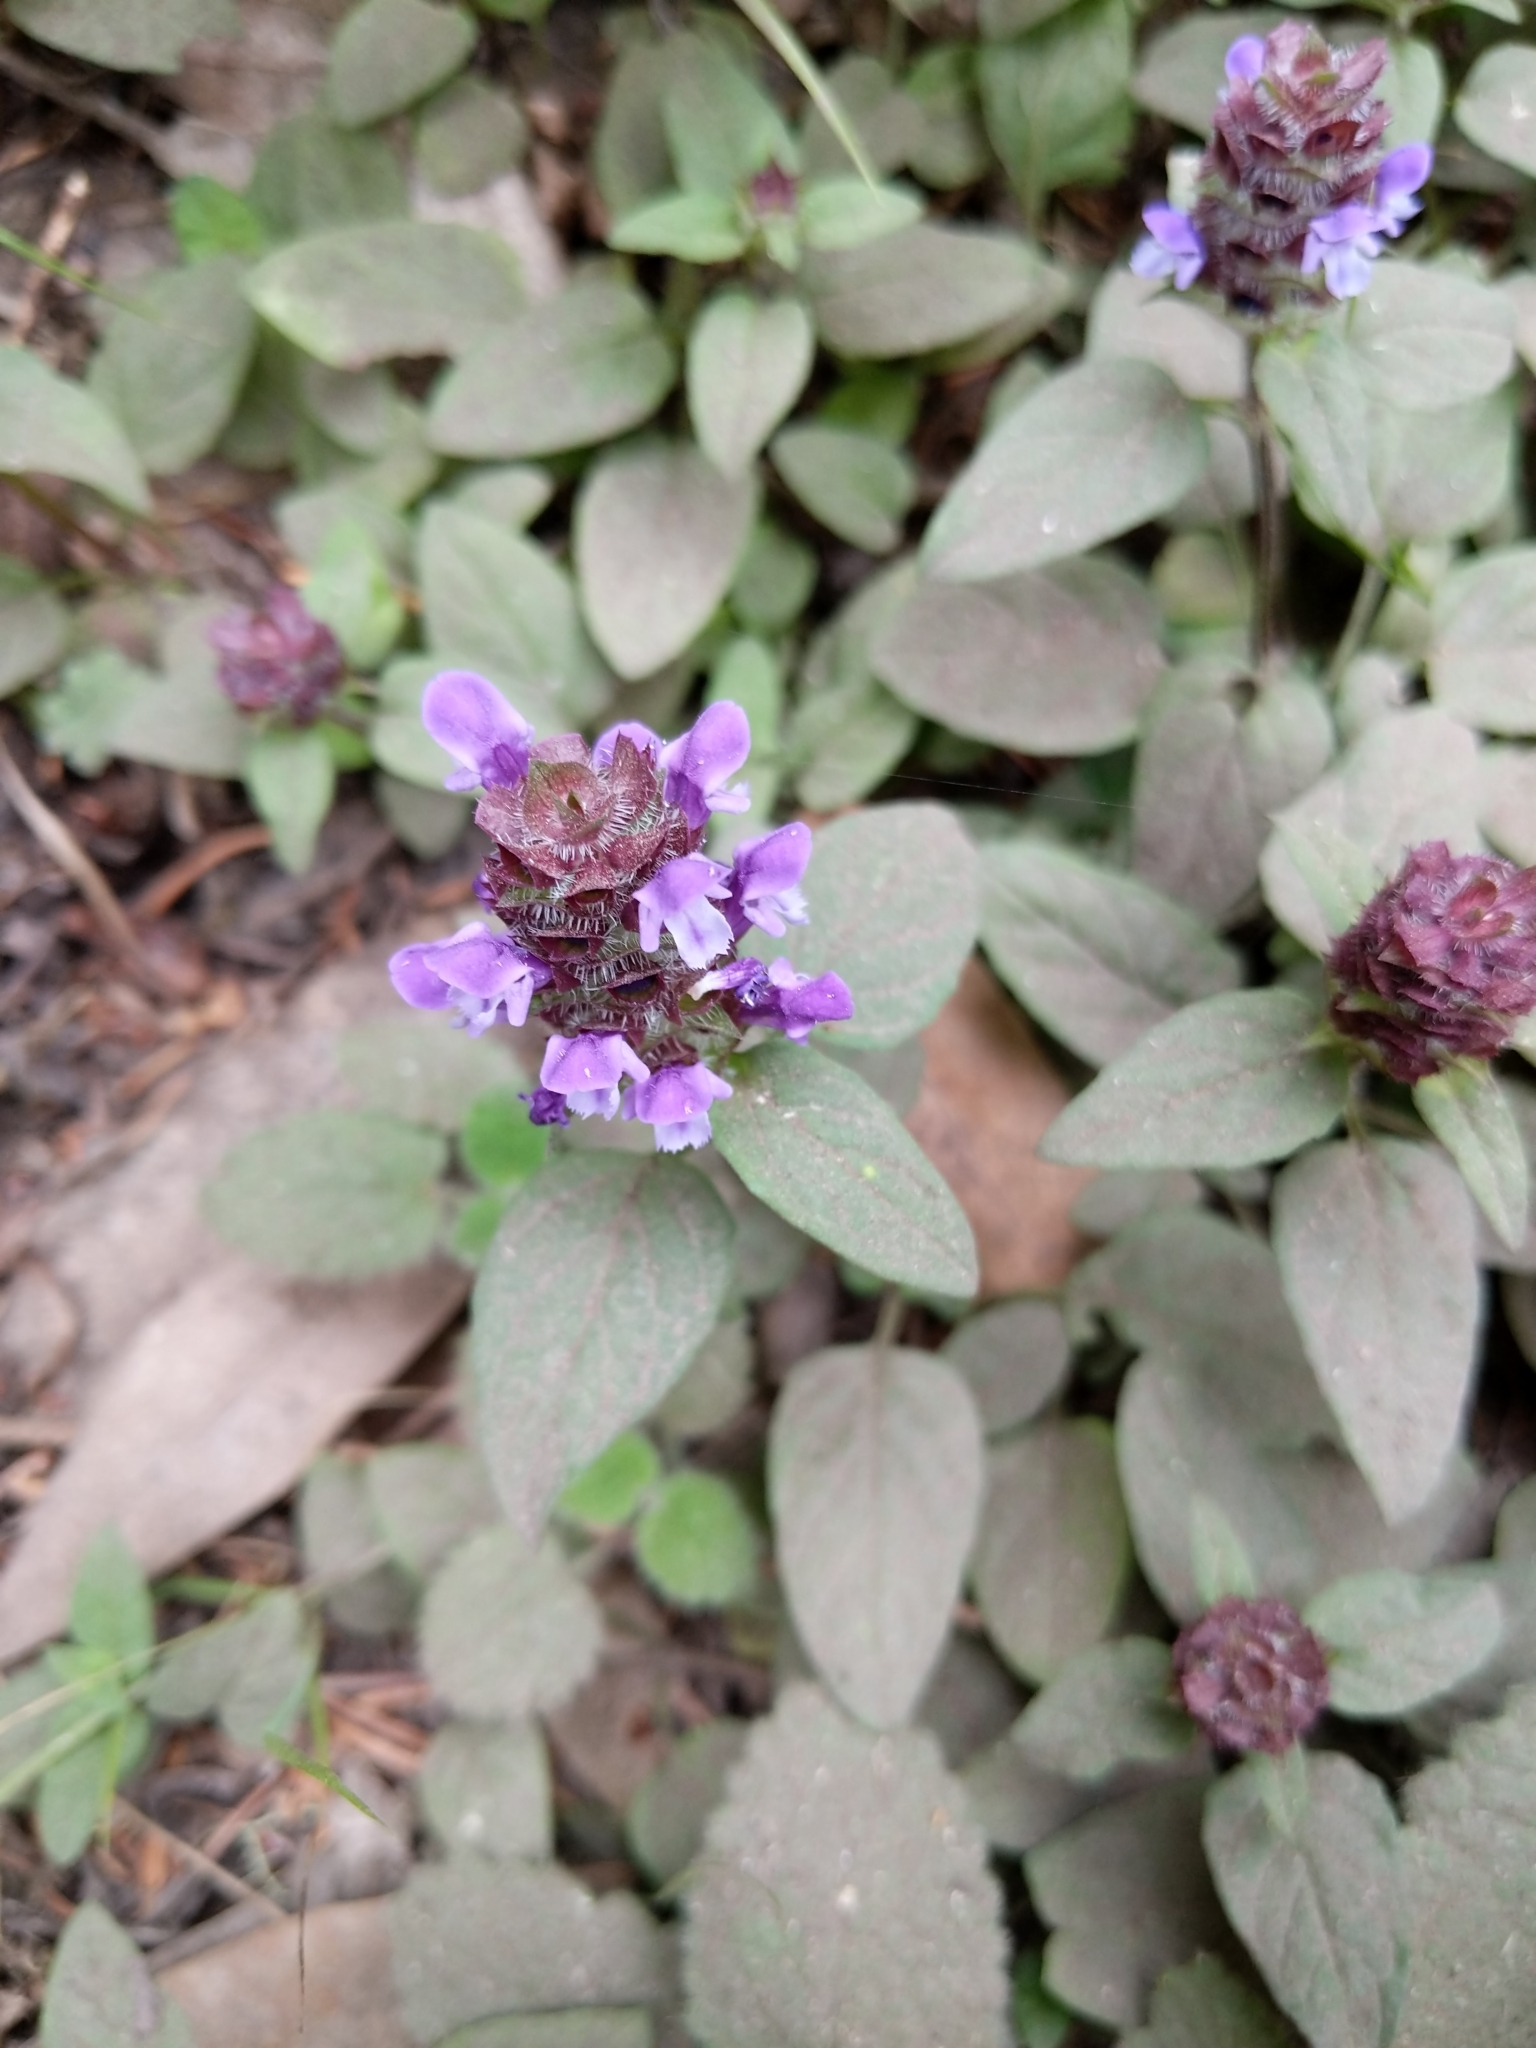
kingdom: Plantae
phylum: Tracheophyta
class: Magnoliopsida
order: Lamiales
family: Lamiaceae
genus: Prunella
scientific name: Prunella vulgaris
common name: Heal-all
